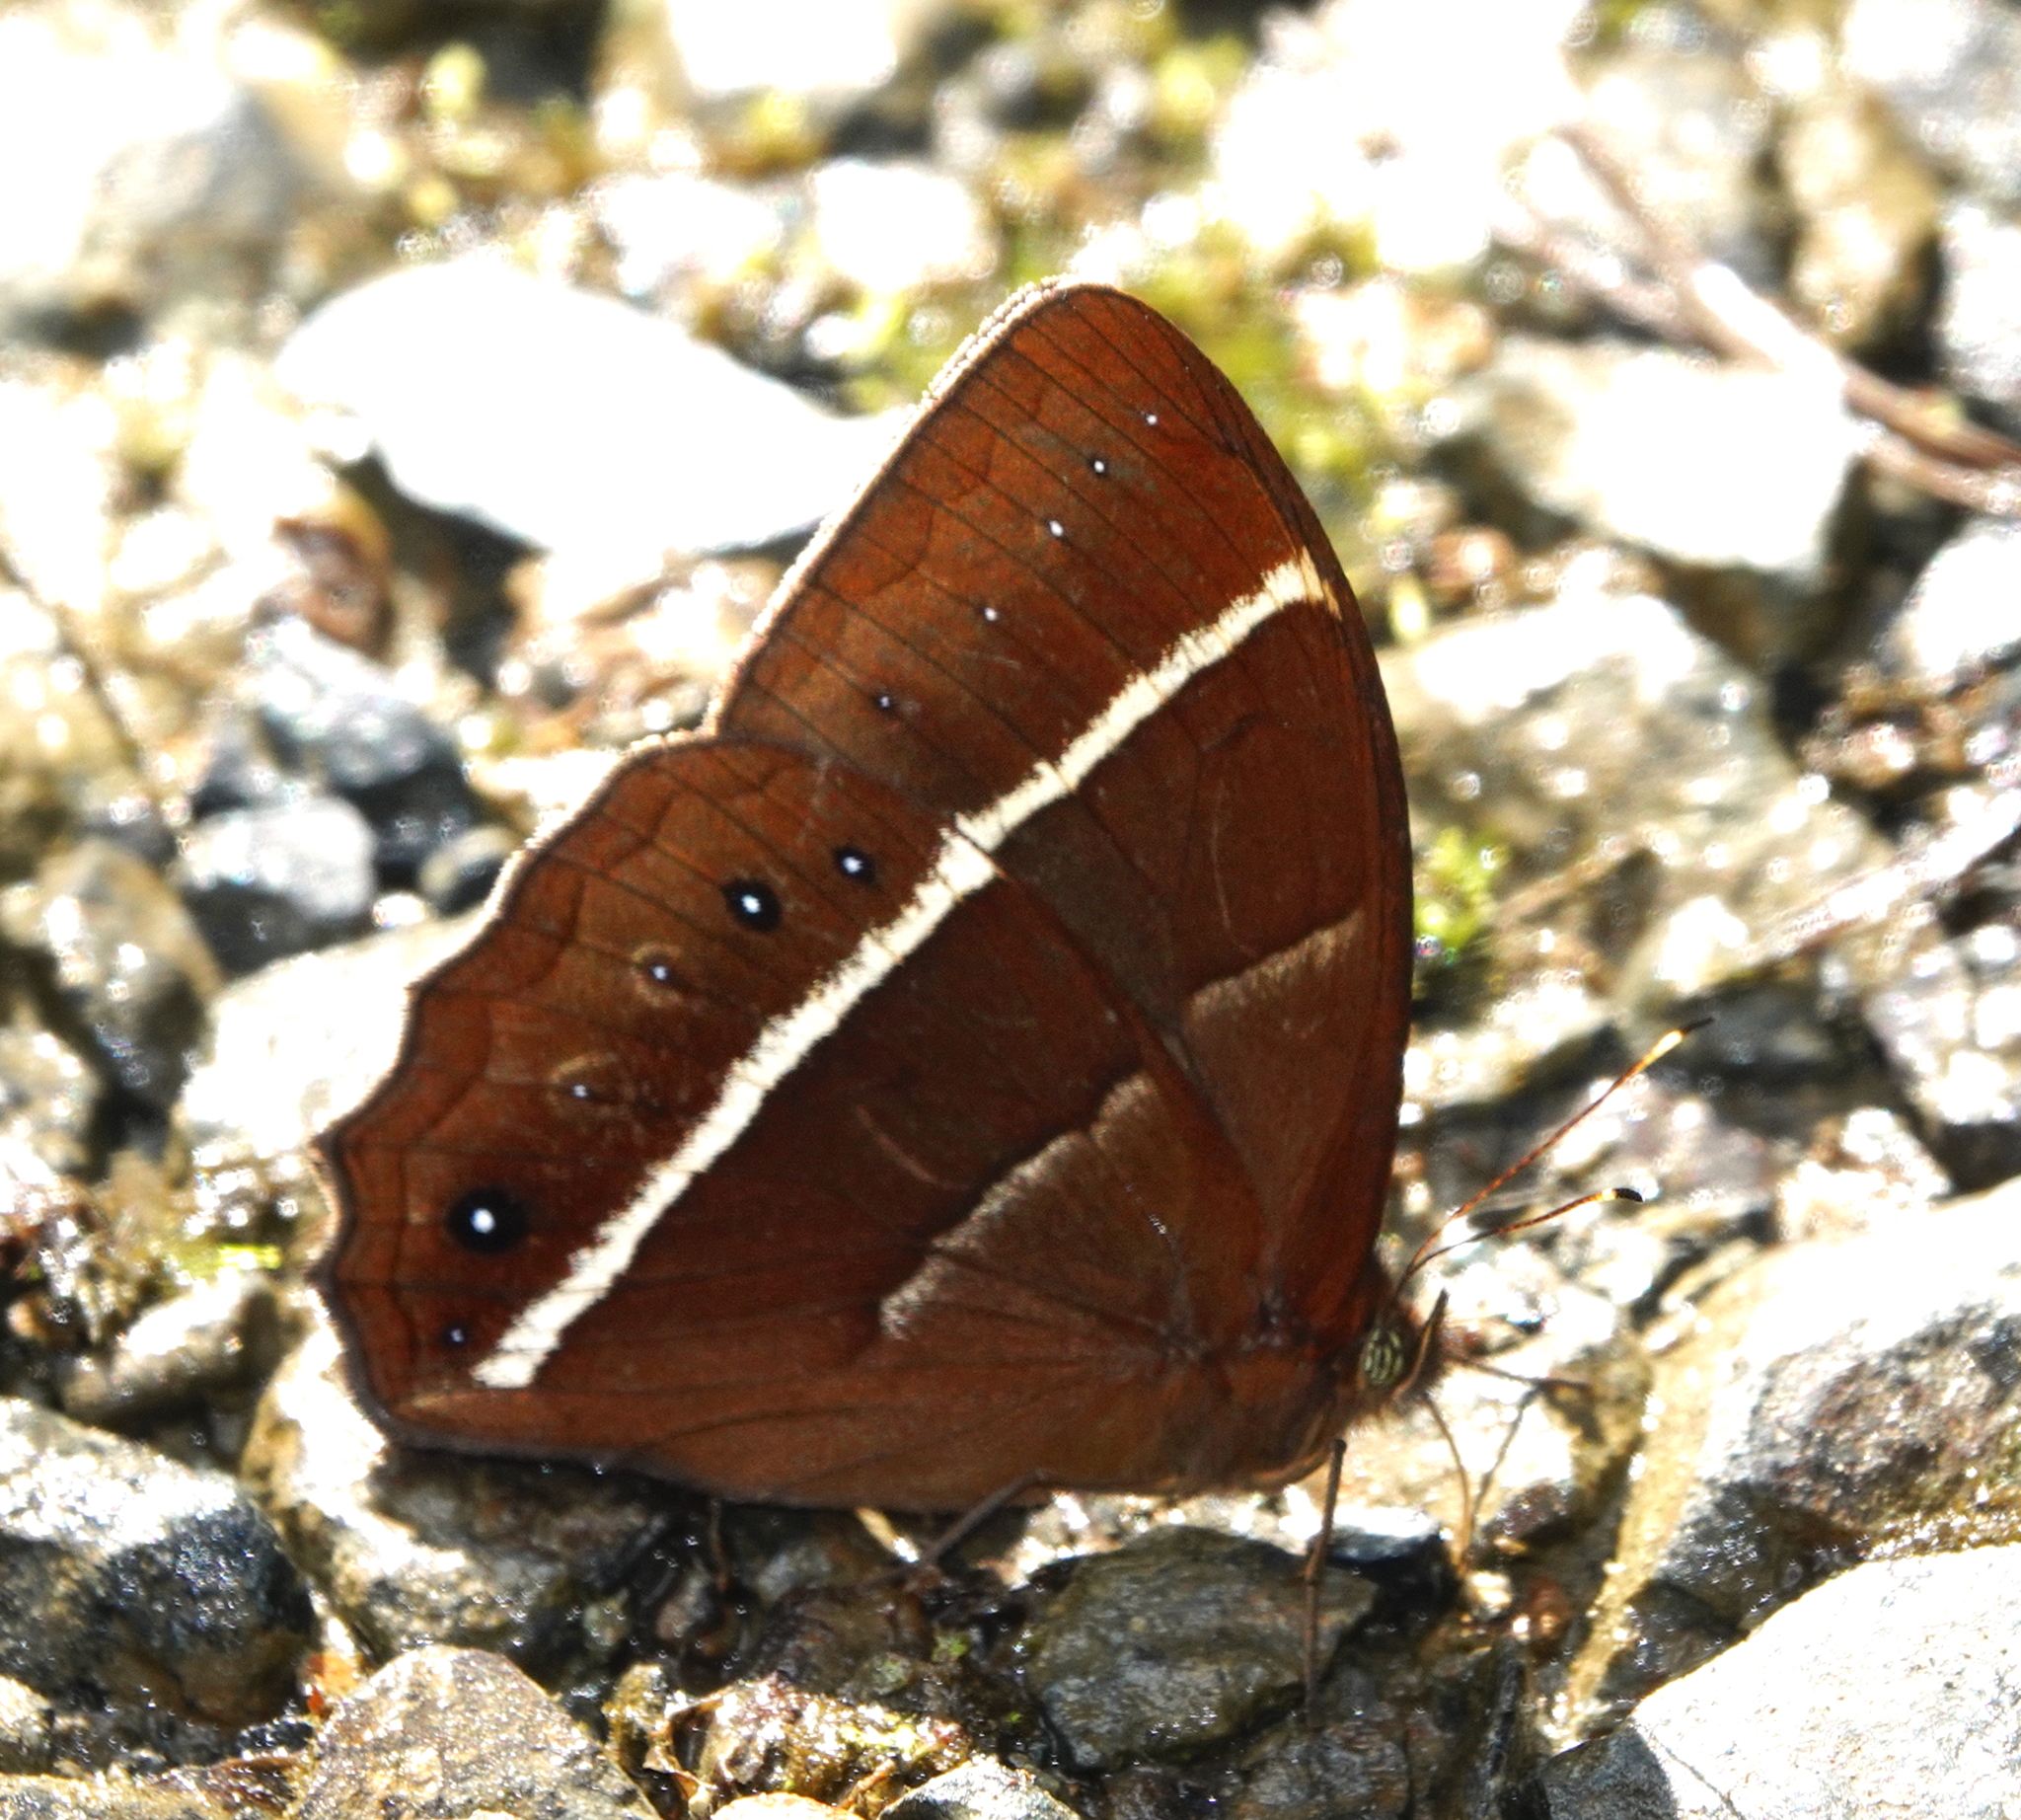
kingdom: Animalia
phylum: Arthropoda
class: Insecta
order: Lepidoptera
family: Nymphalidae
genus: Parataygetis
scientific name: Parataygetis lineata
